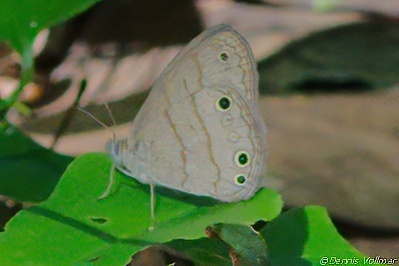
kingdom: Animalia
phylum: Arthropoda
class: Insecta
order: Lepidoptera
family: Nymphalidae
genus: Hermeuptychia
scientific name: Hermeuptychia intricata
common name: Intricate satyr
